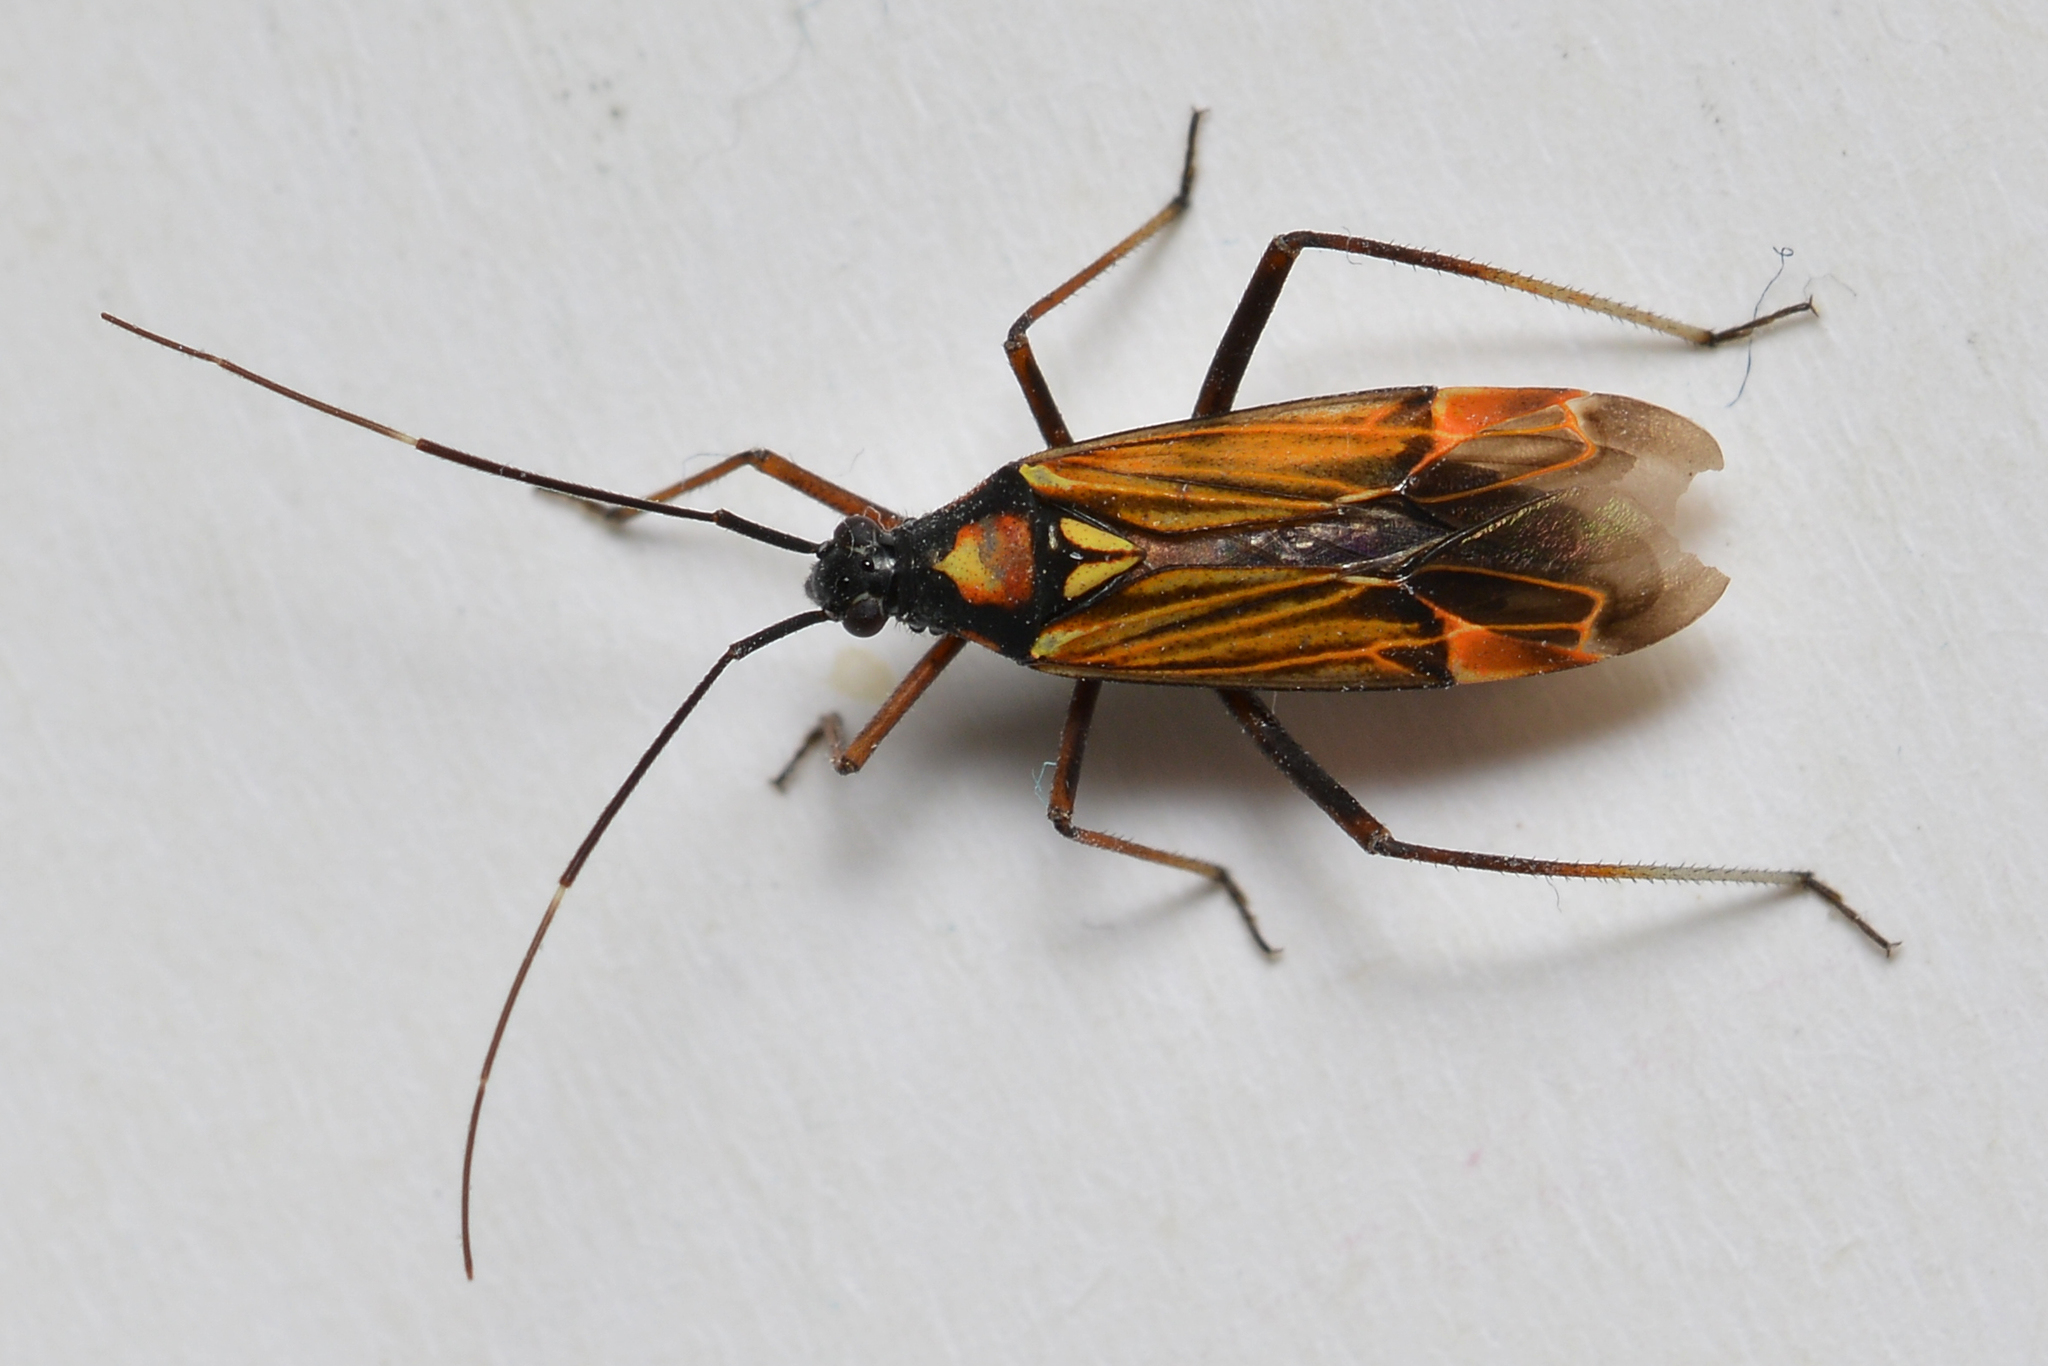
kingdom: Animalia
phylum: Arthropoda
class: Insecta
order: Hemiptera
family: Miridae
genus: Miris
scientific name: Miris striatus
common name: Fine streaked bugkin
